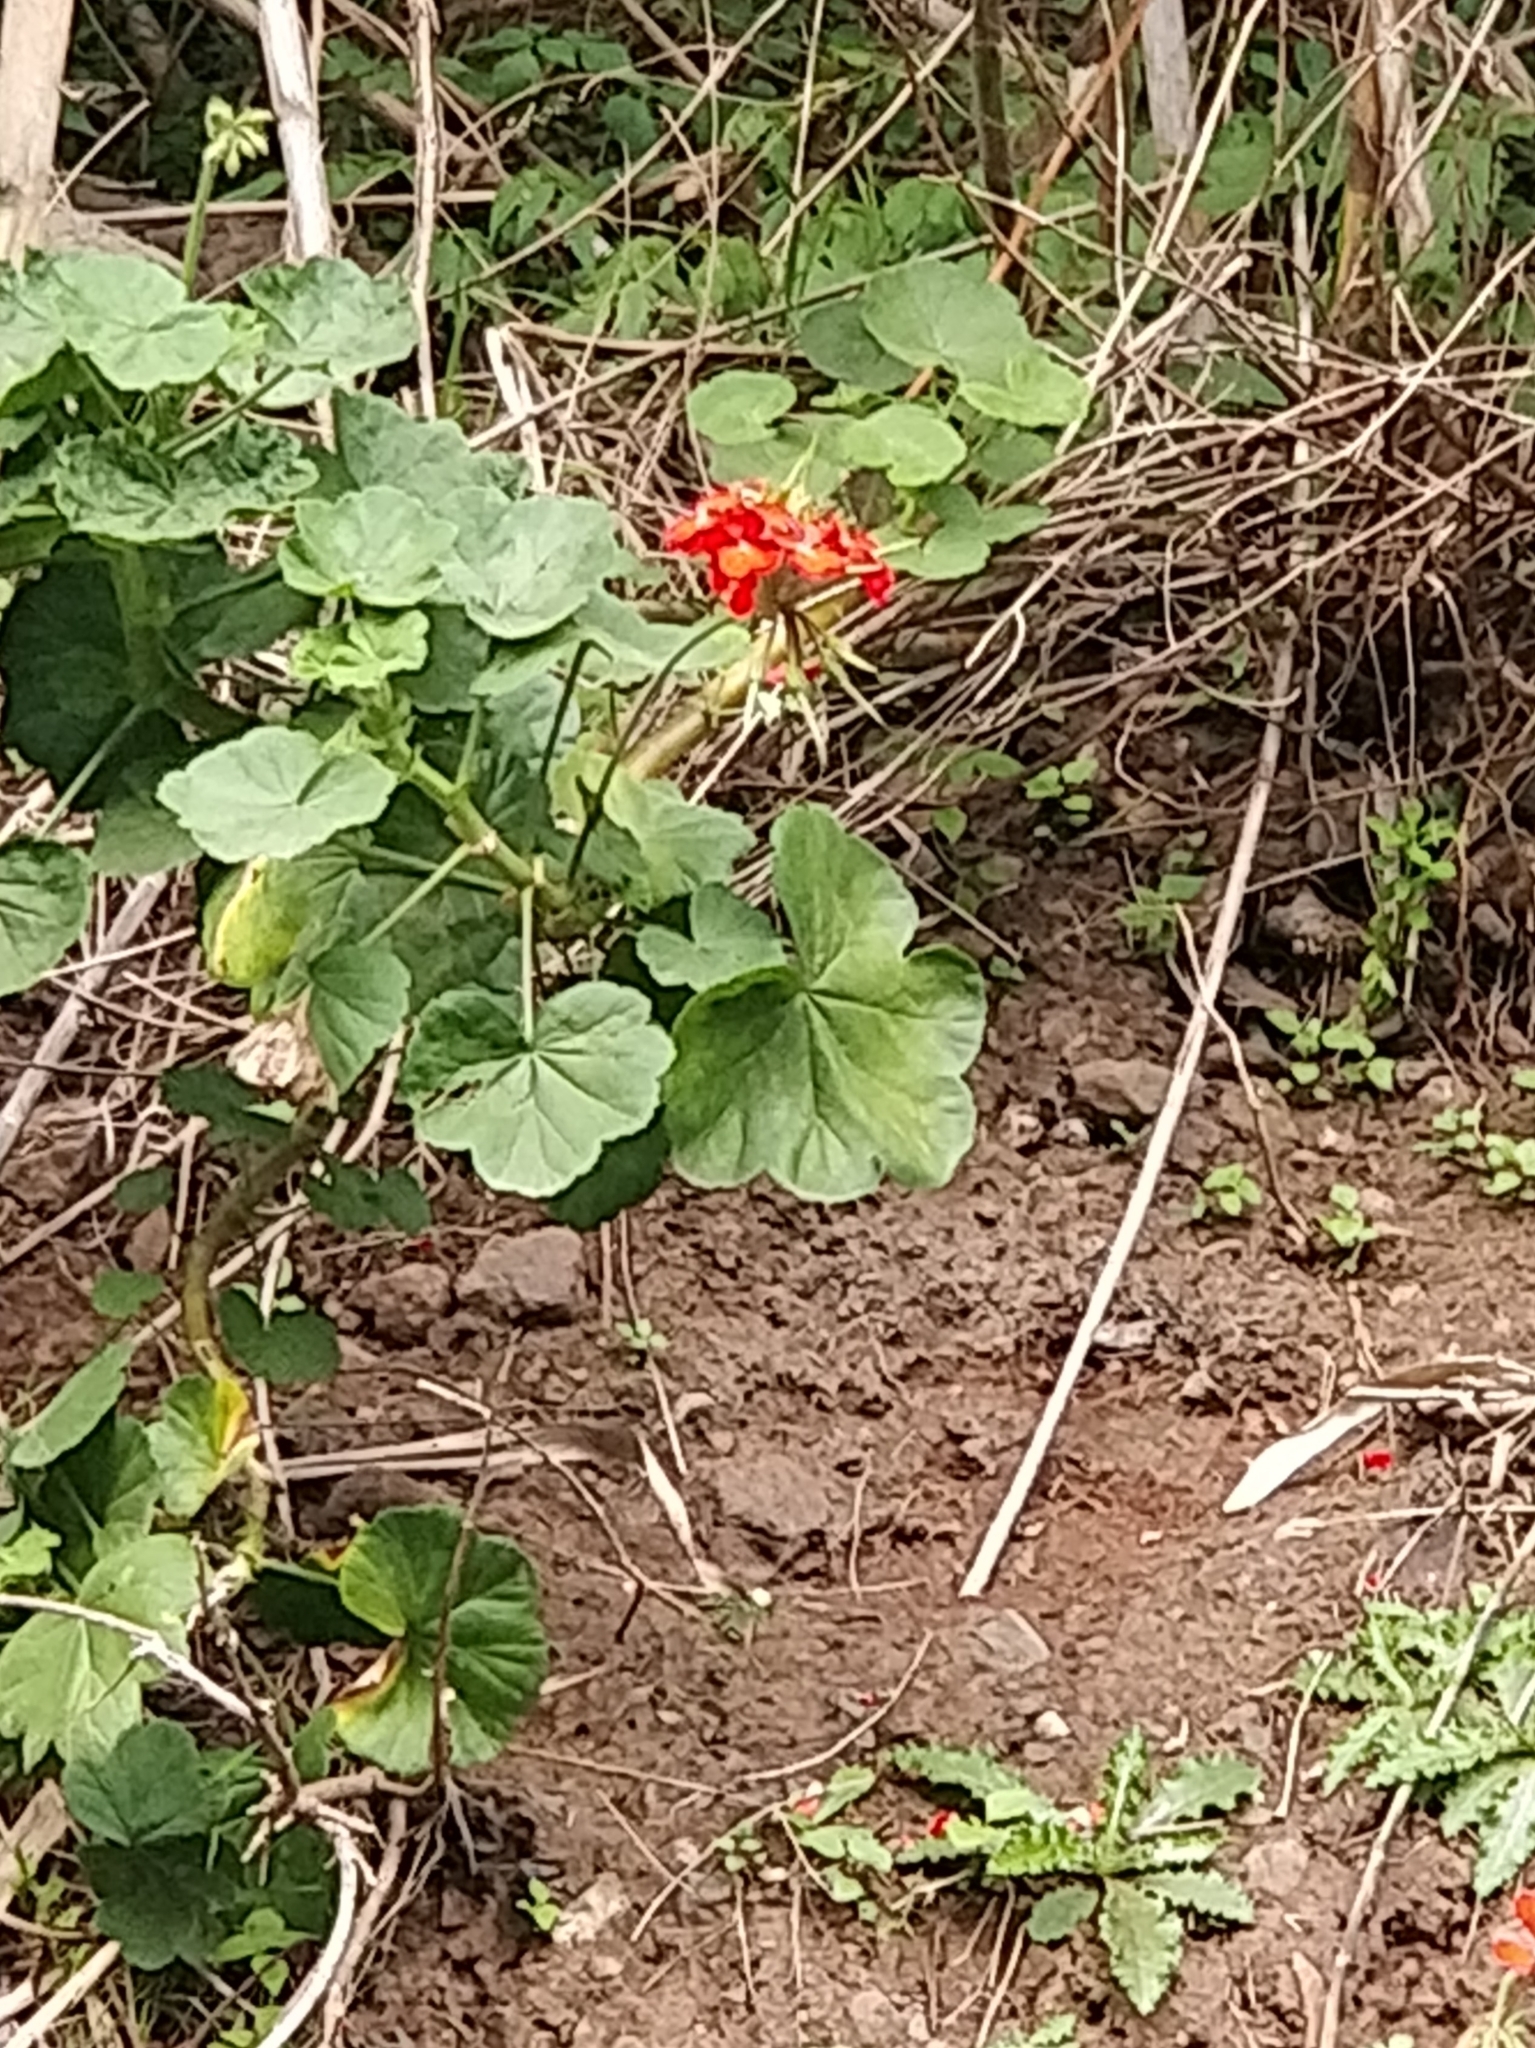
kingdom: Plantae
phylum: Tracheophyta
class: Magnoliopsida
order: Geraniales
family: Geraniaceae
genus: Pelargonium
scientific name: Pelargonium hybridum
